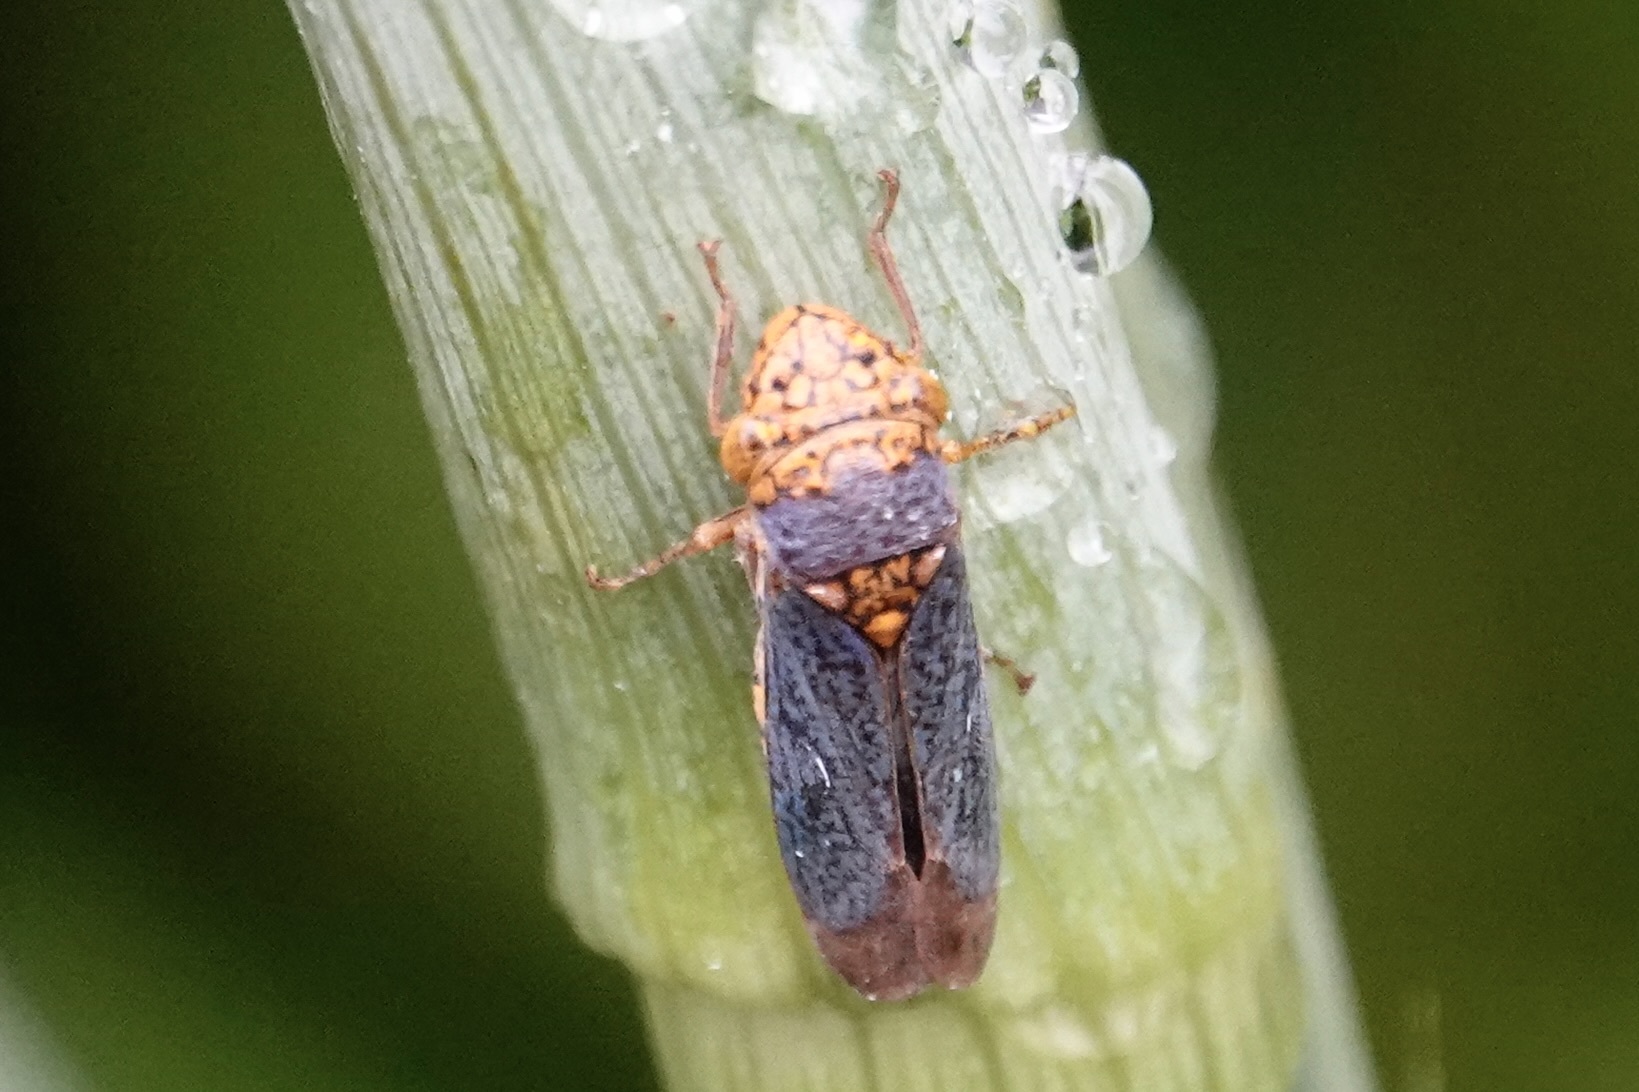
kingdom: Animalia
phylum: Arthropoda
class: Insecta
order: Hemiptera
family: Cicadellidae
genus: Oncometopia
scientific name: Oncometopia orbona
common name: Broad-headed sharpshooter
